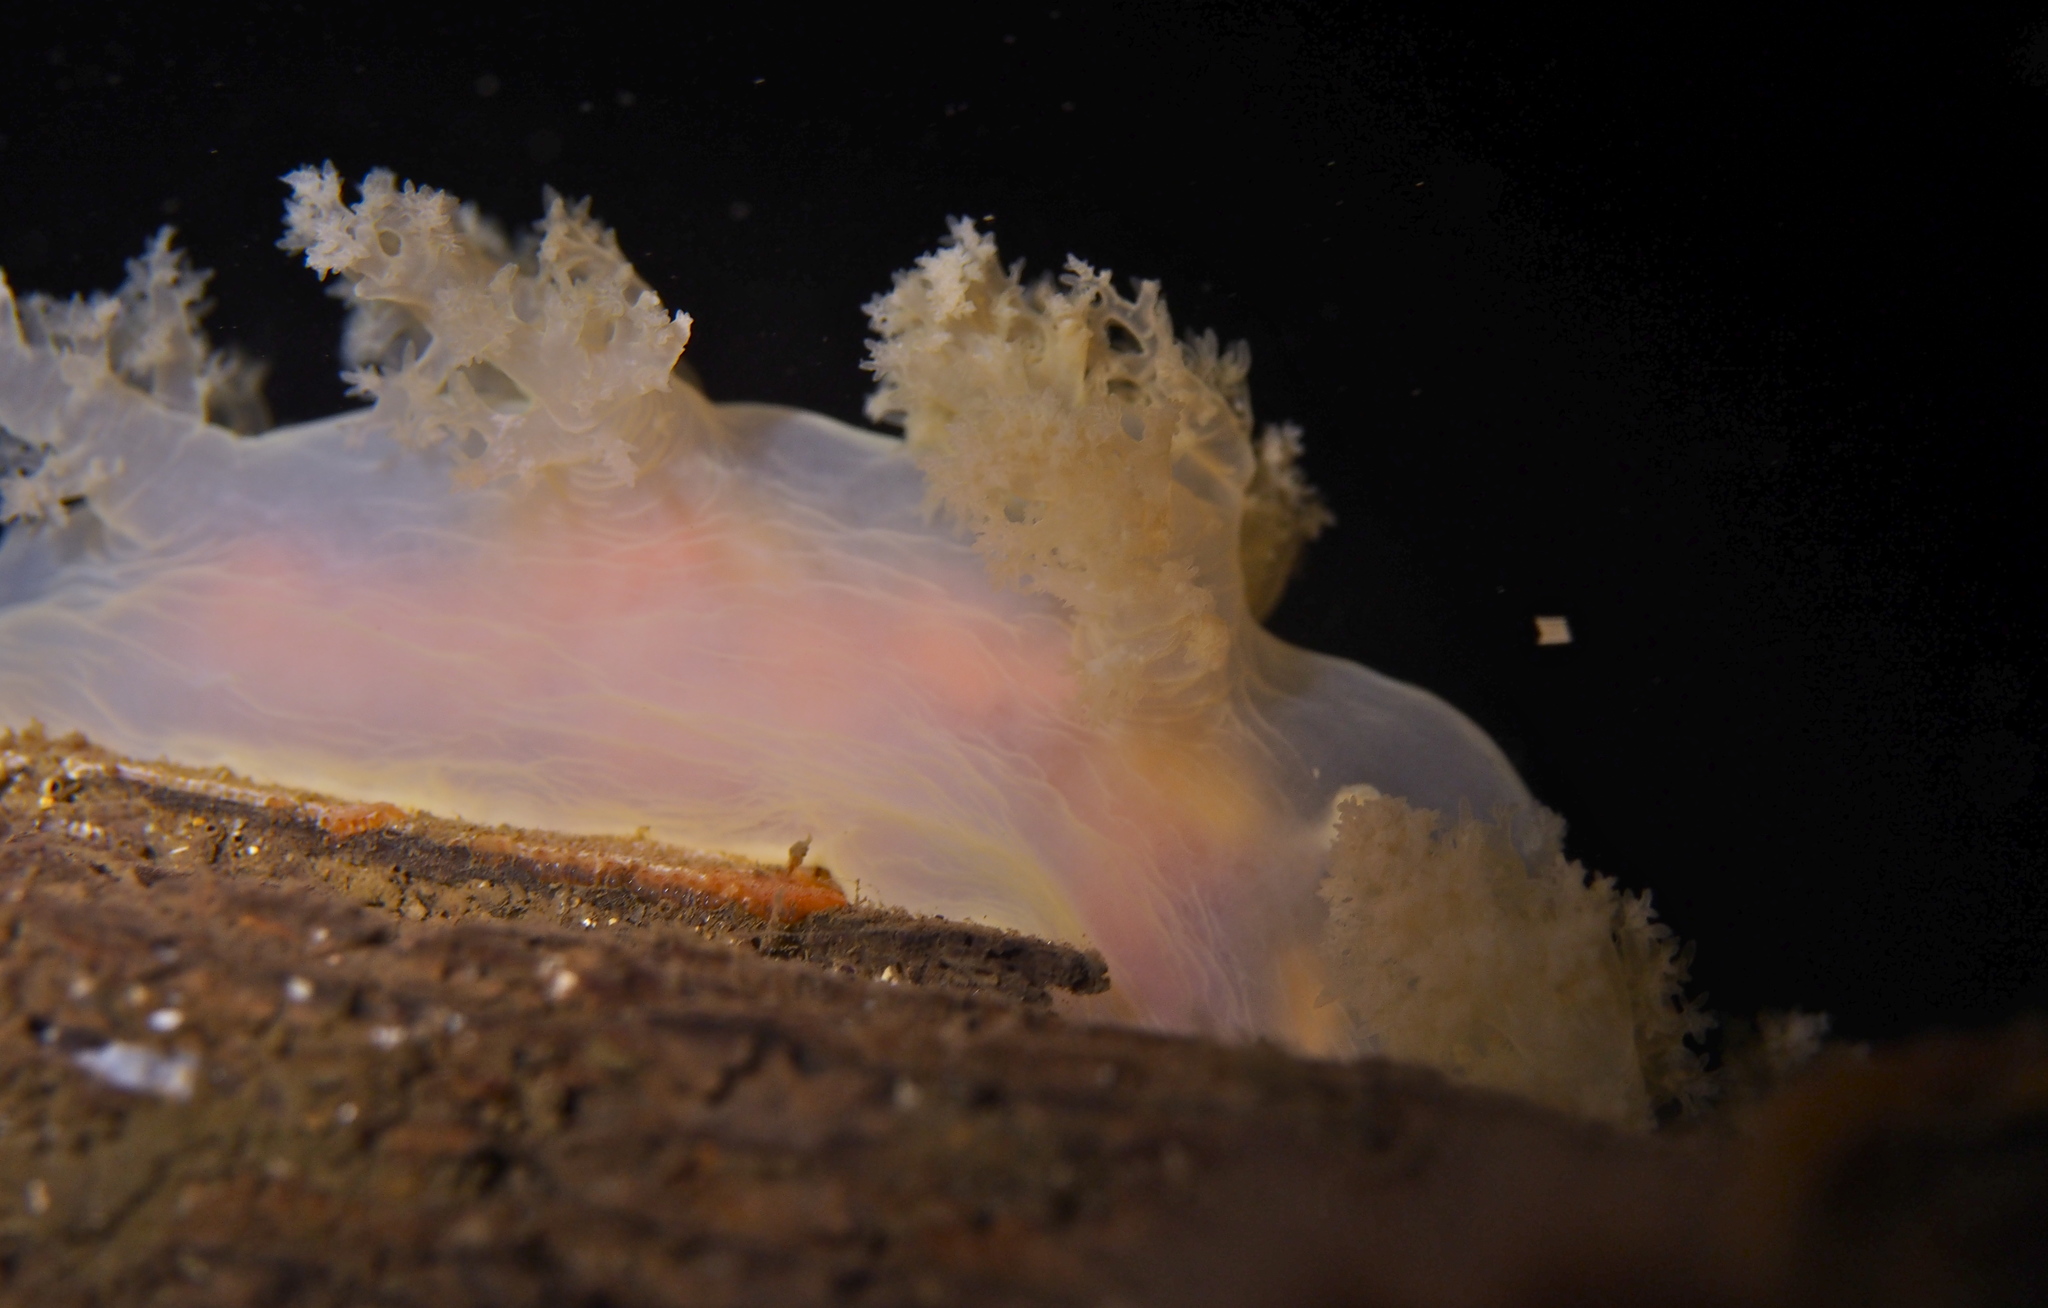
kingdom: Animalia
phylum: Mollusca
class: Gastropoda
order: Nudibranchia
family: Dendronotidae
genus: Dendronotus
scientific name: Dendronotus lacteus
